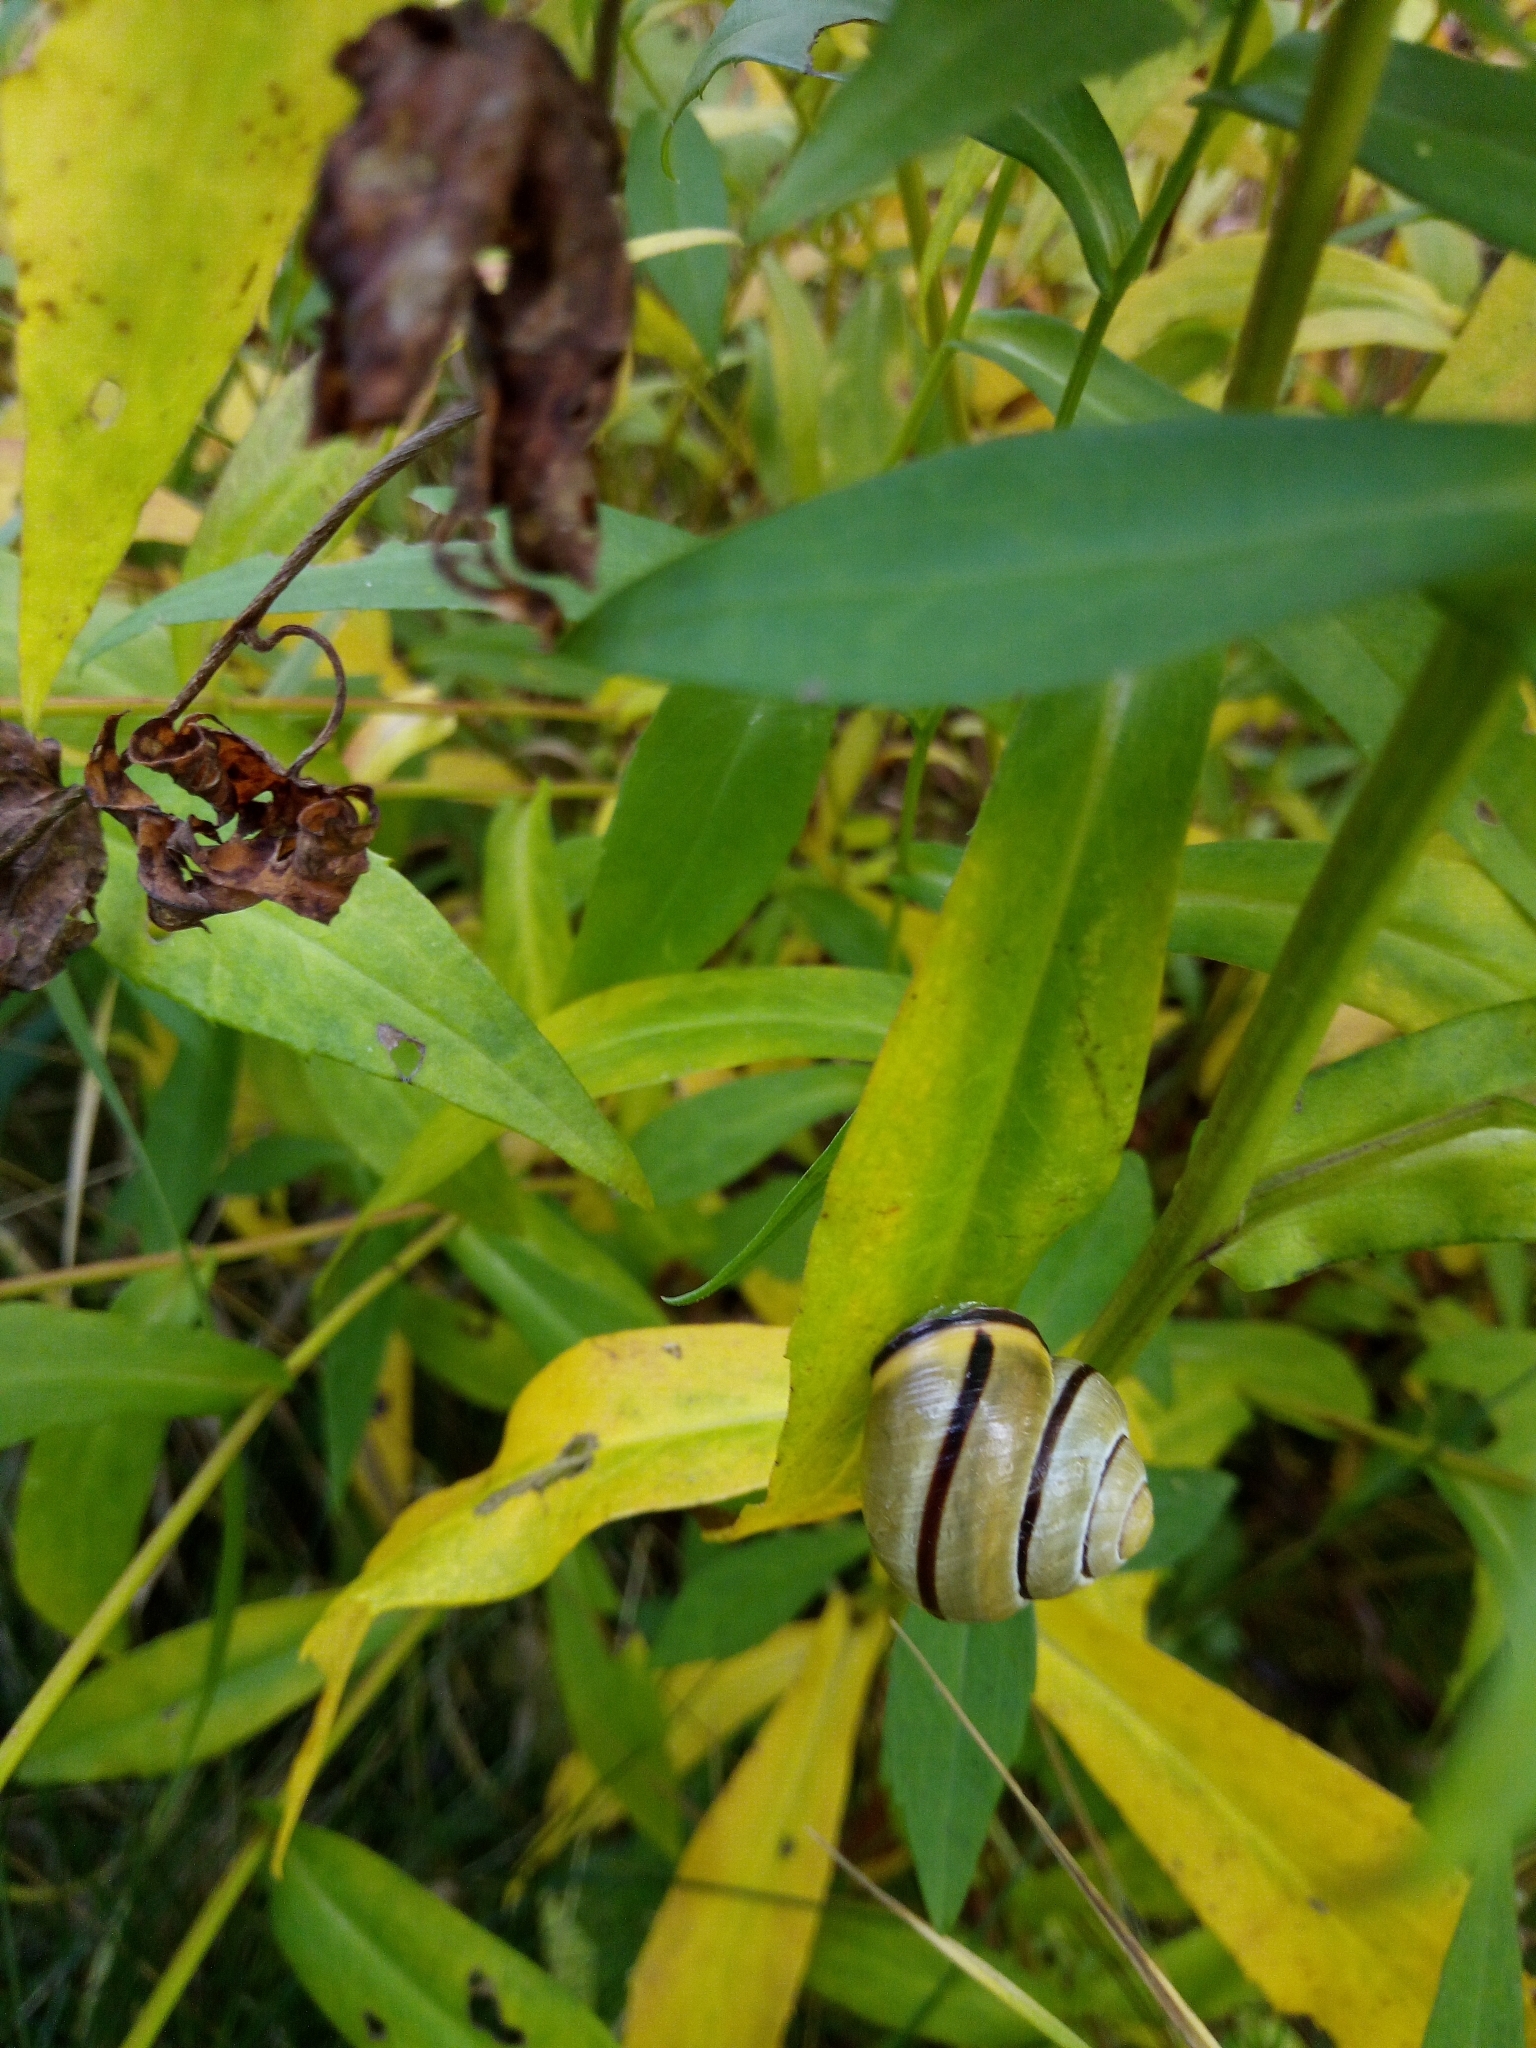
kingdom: Animalia
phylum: Mollusca
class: Gastropoda
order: Stylommatophora
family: Helicidae
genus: Cepaea
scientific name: Cepaea nemoralis
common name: Grovesnail
